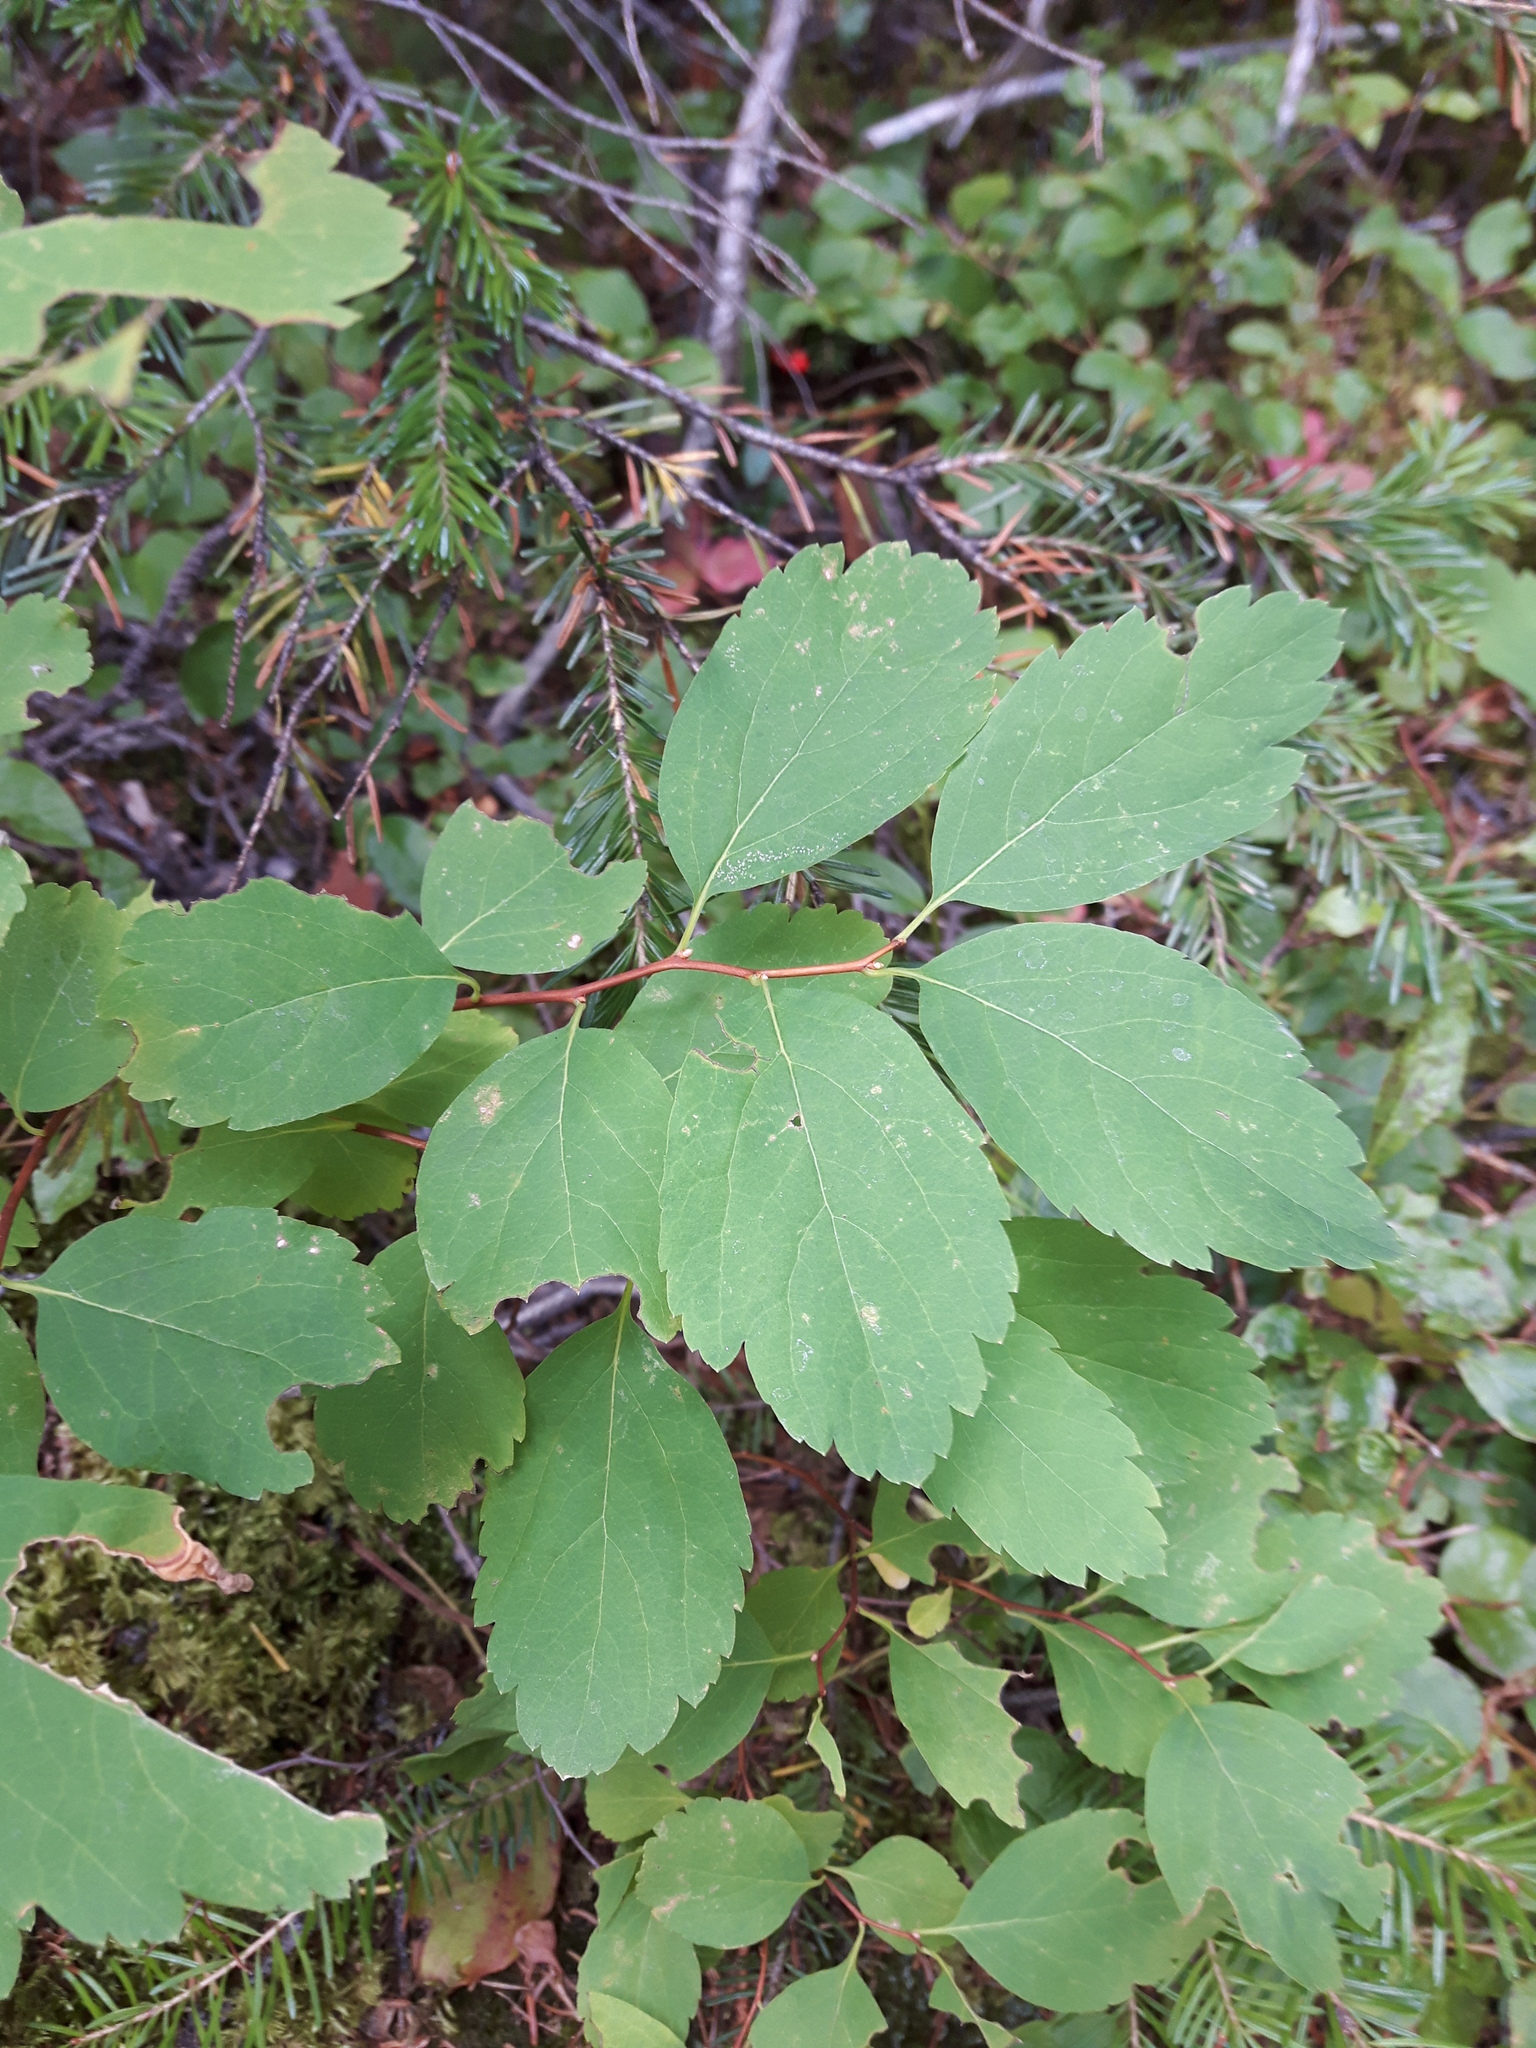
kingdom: Plantae
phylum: Tracheophyta
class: Magnoliopsida
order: Rosales
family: Rosaceae
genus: Spiraea
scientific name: Spiraea lucida
